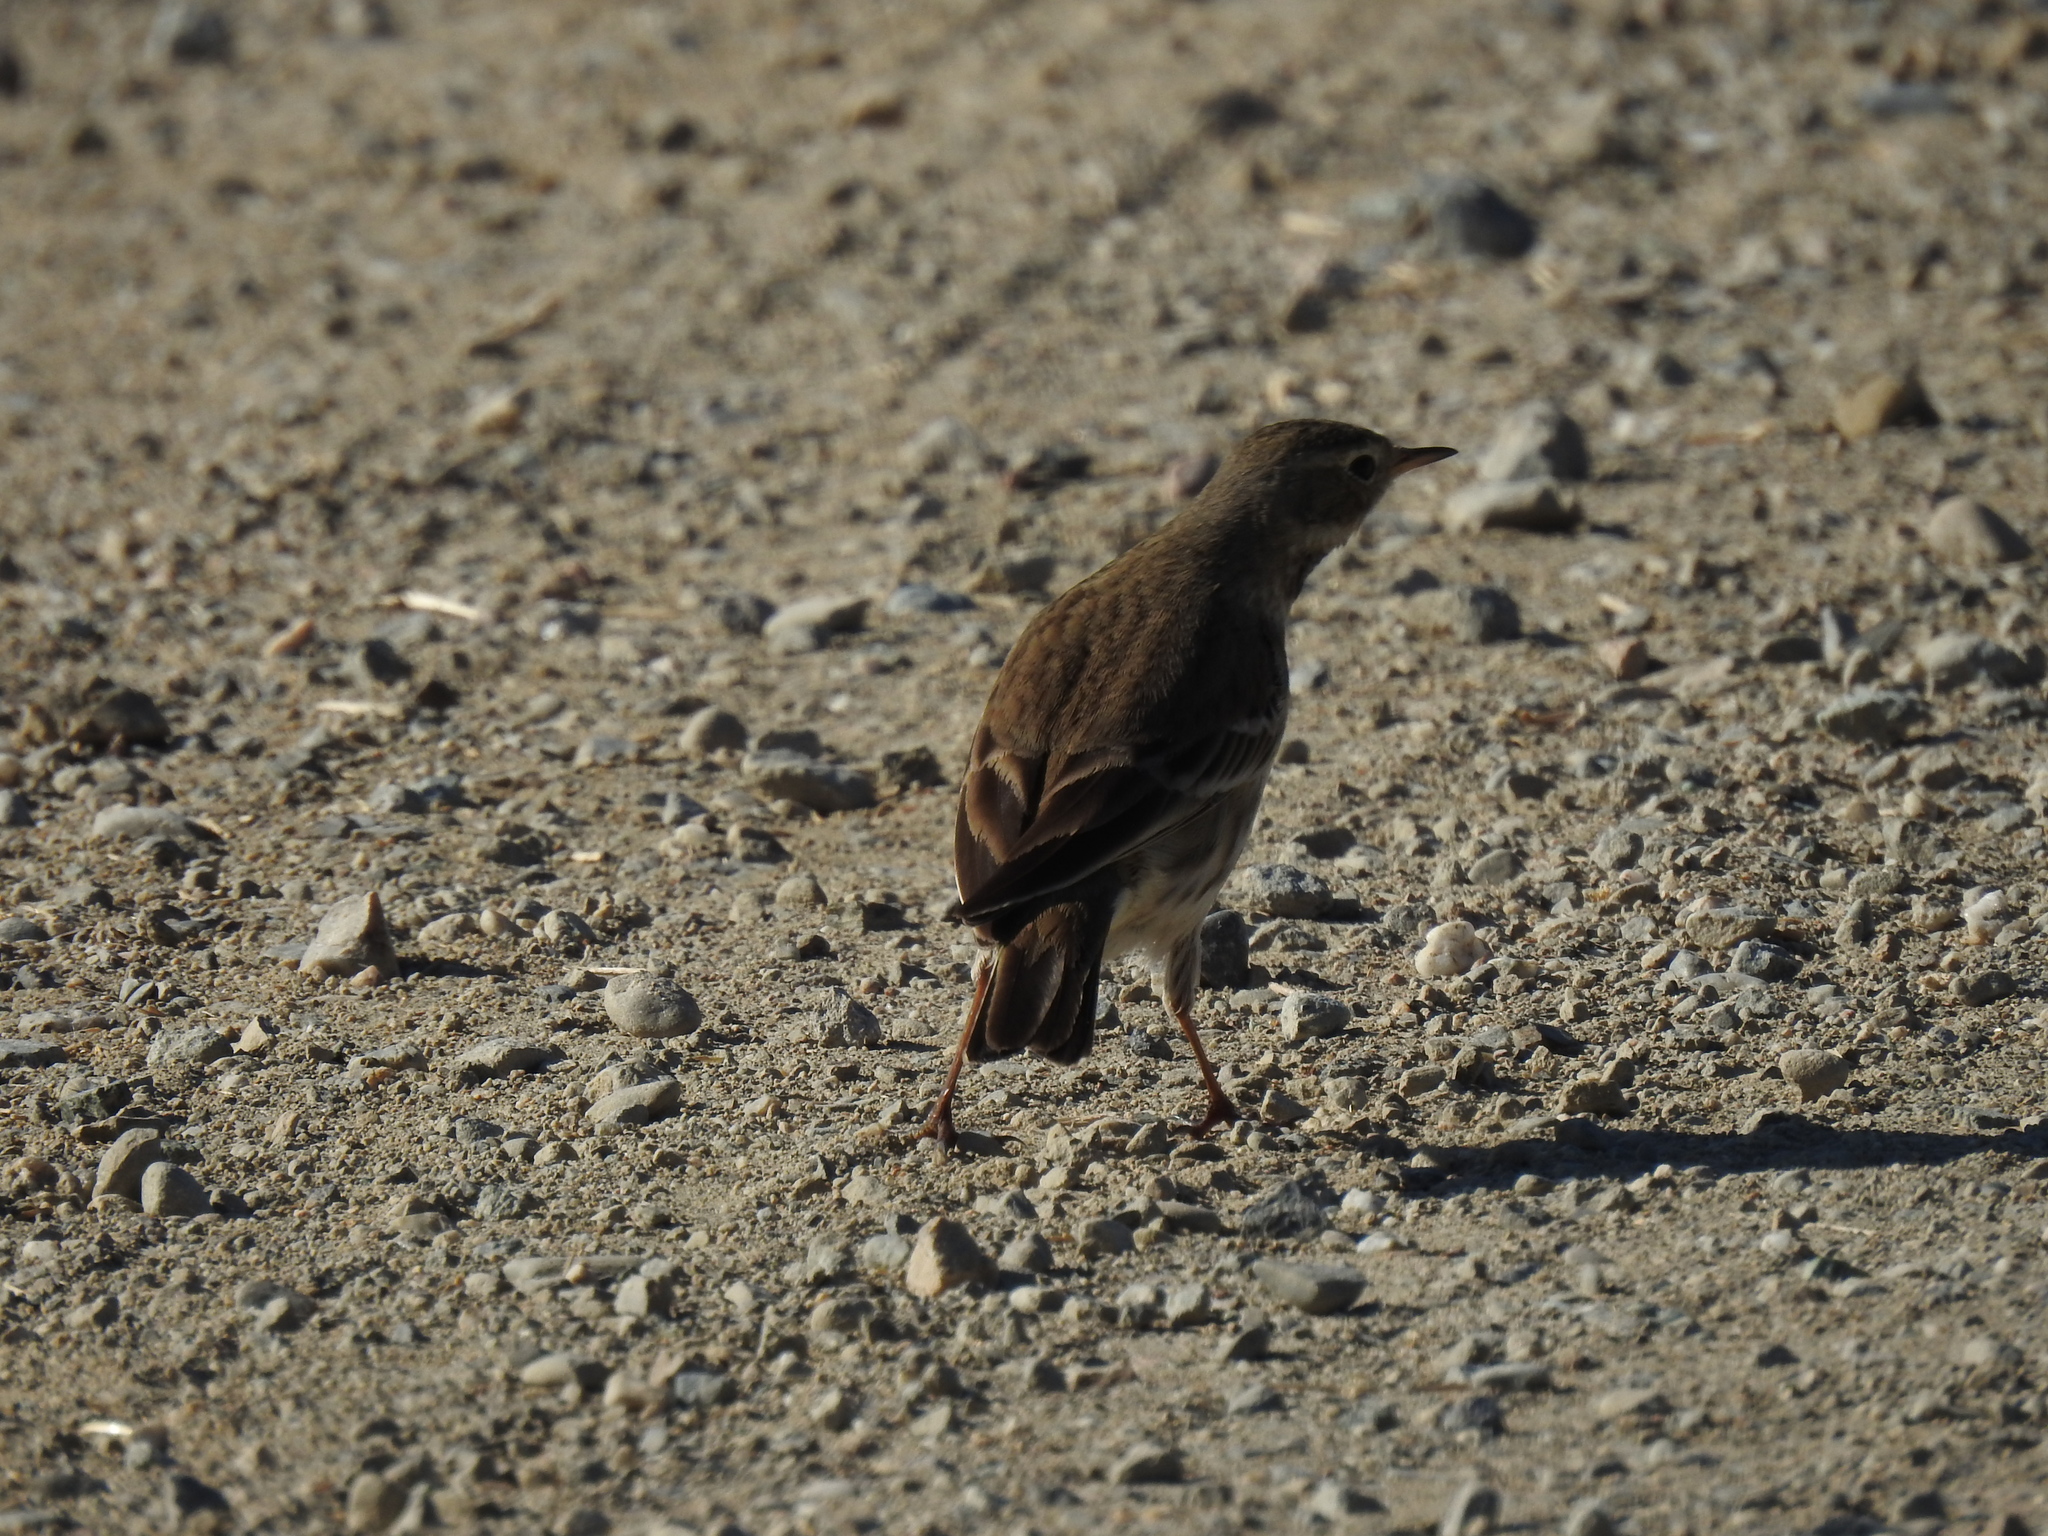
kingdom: Animalia
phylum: Chordata
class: Aves
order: Passeriformes
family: Motacillidae
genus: Anthus
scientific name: Anthus rubescens
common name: Buff-bellied pipit
